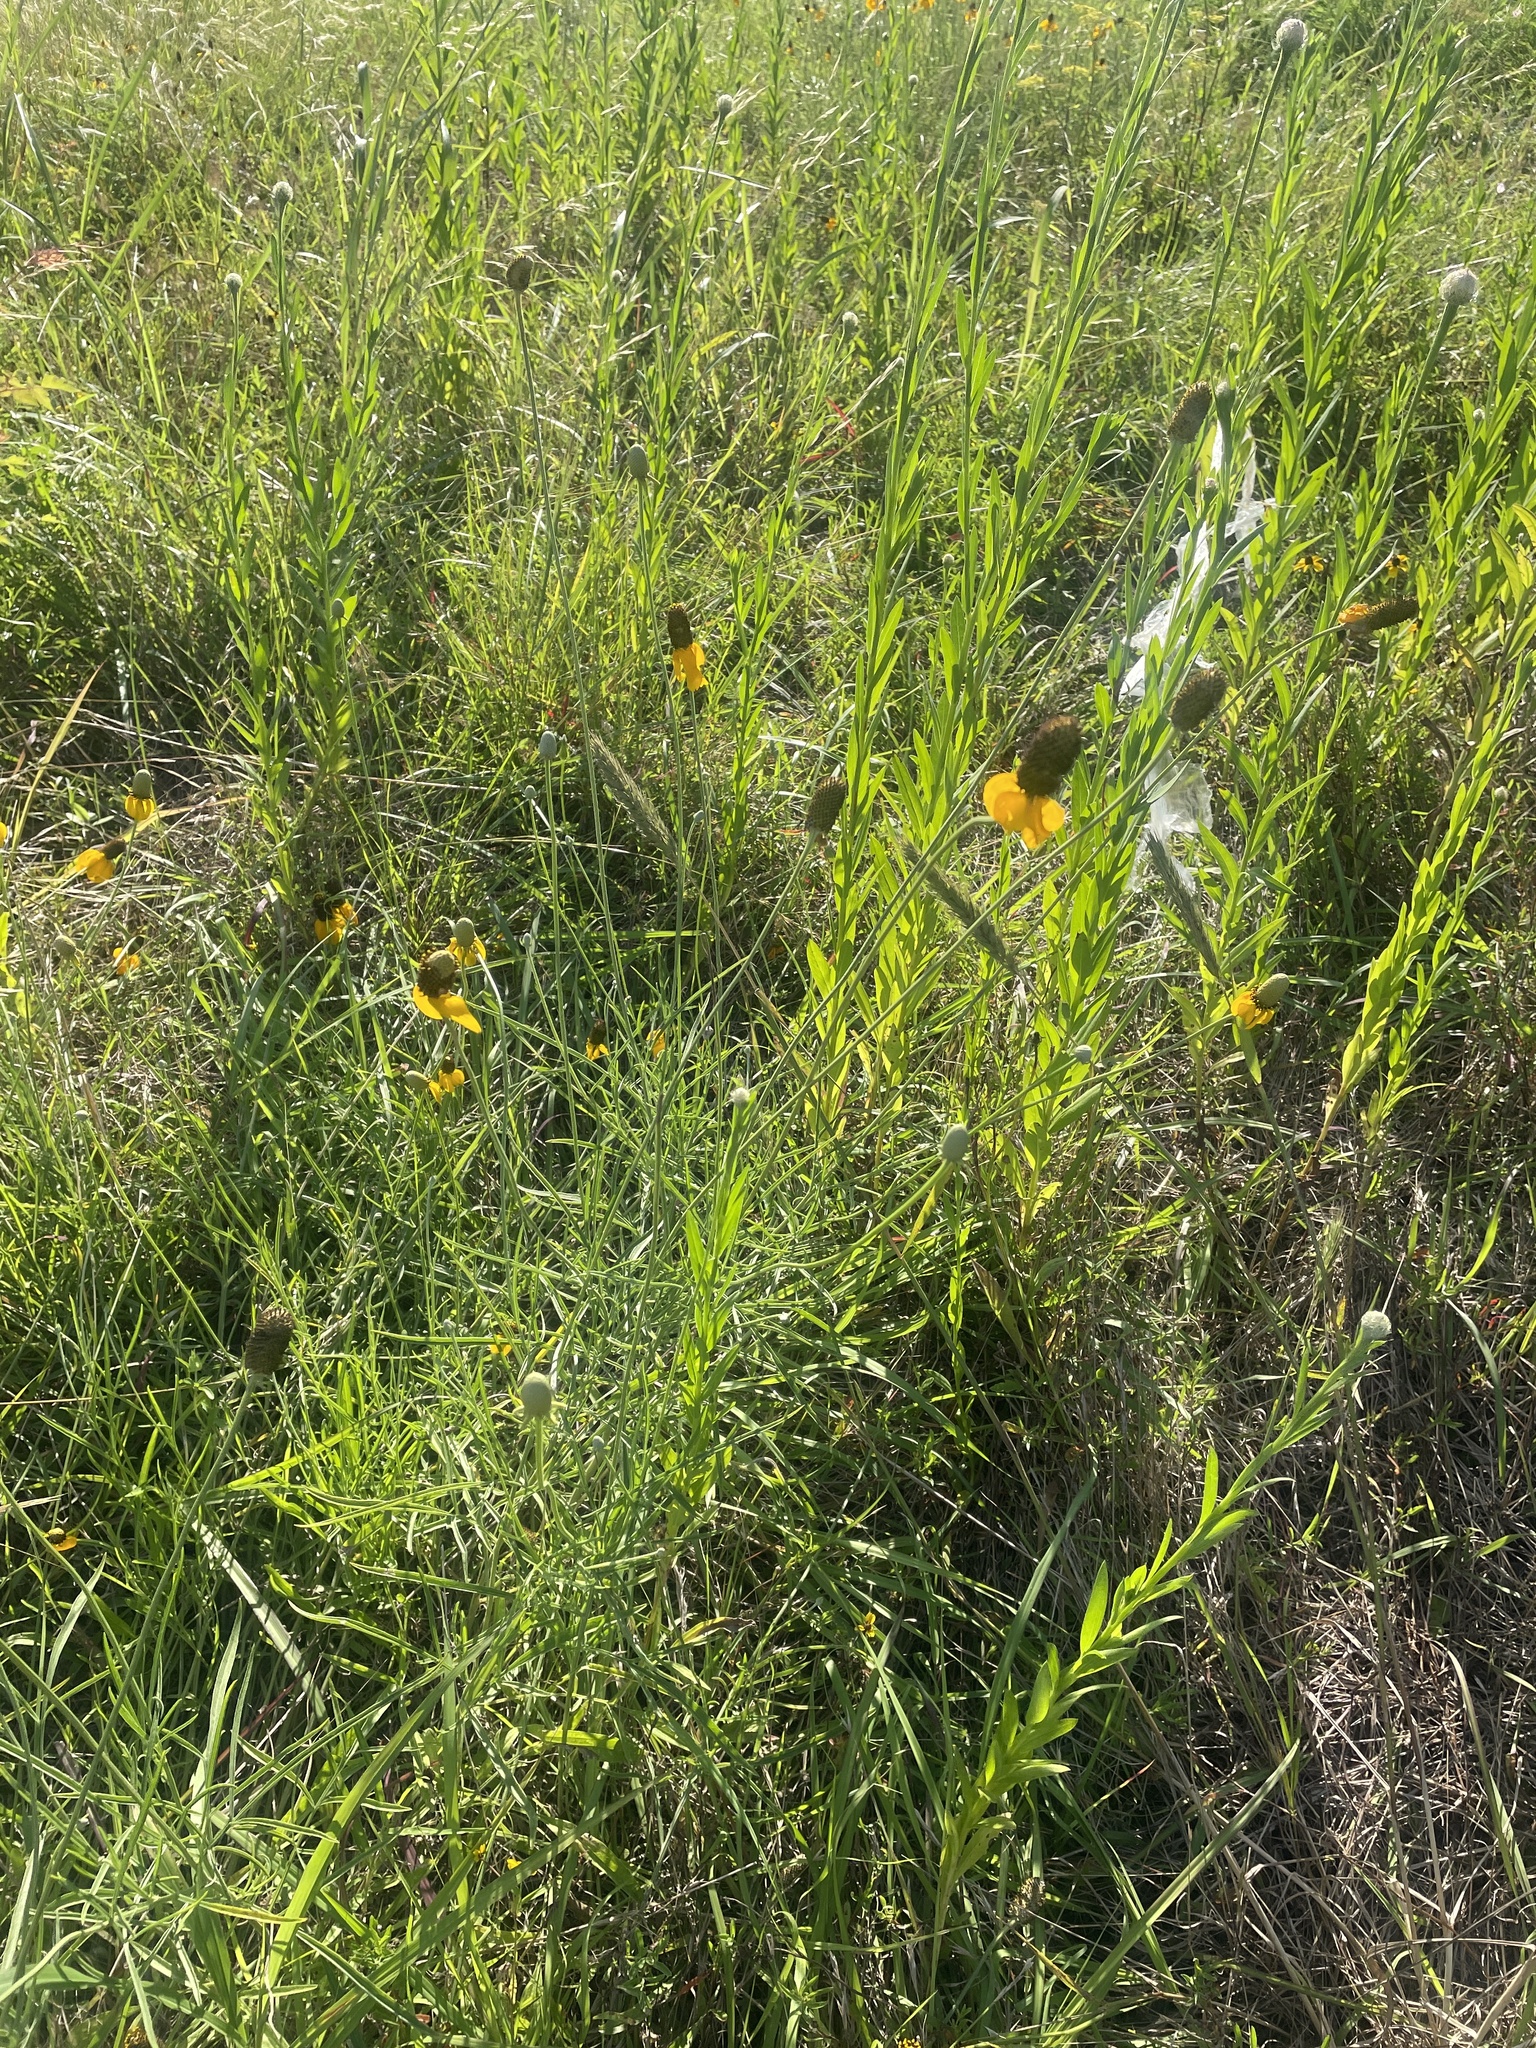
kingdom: Plantae
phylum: Tracheophyta
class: Magnoliopsida
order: Asterales
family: Asteraceae
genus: Ratibida
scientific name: Ratibida columnifera
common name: Prairie coneflower
